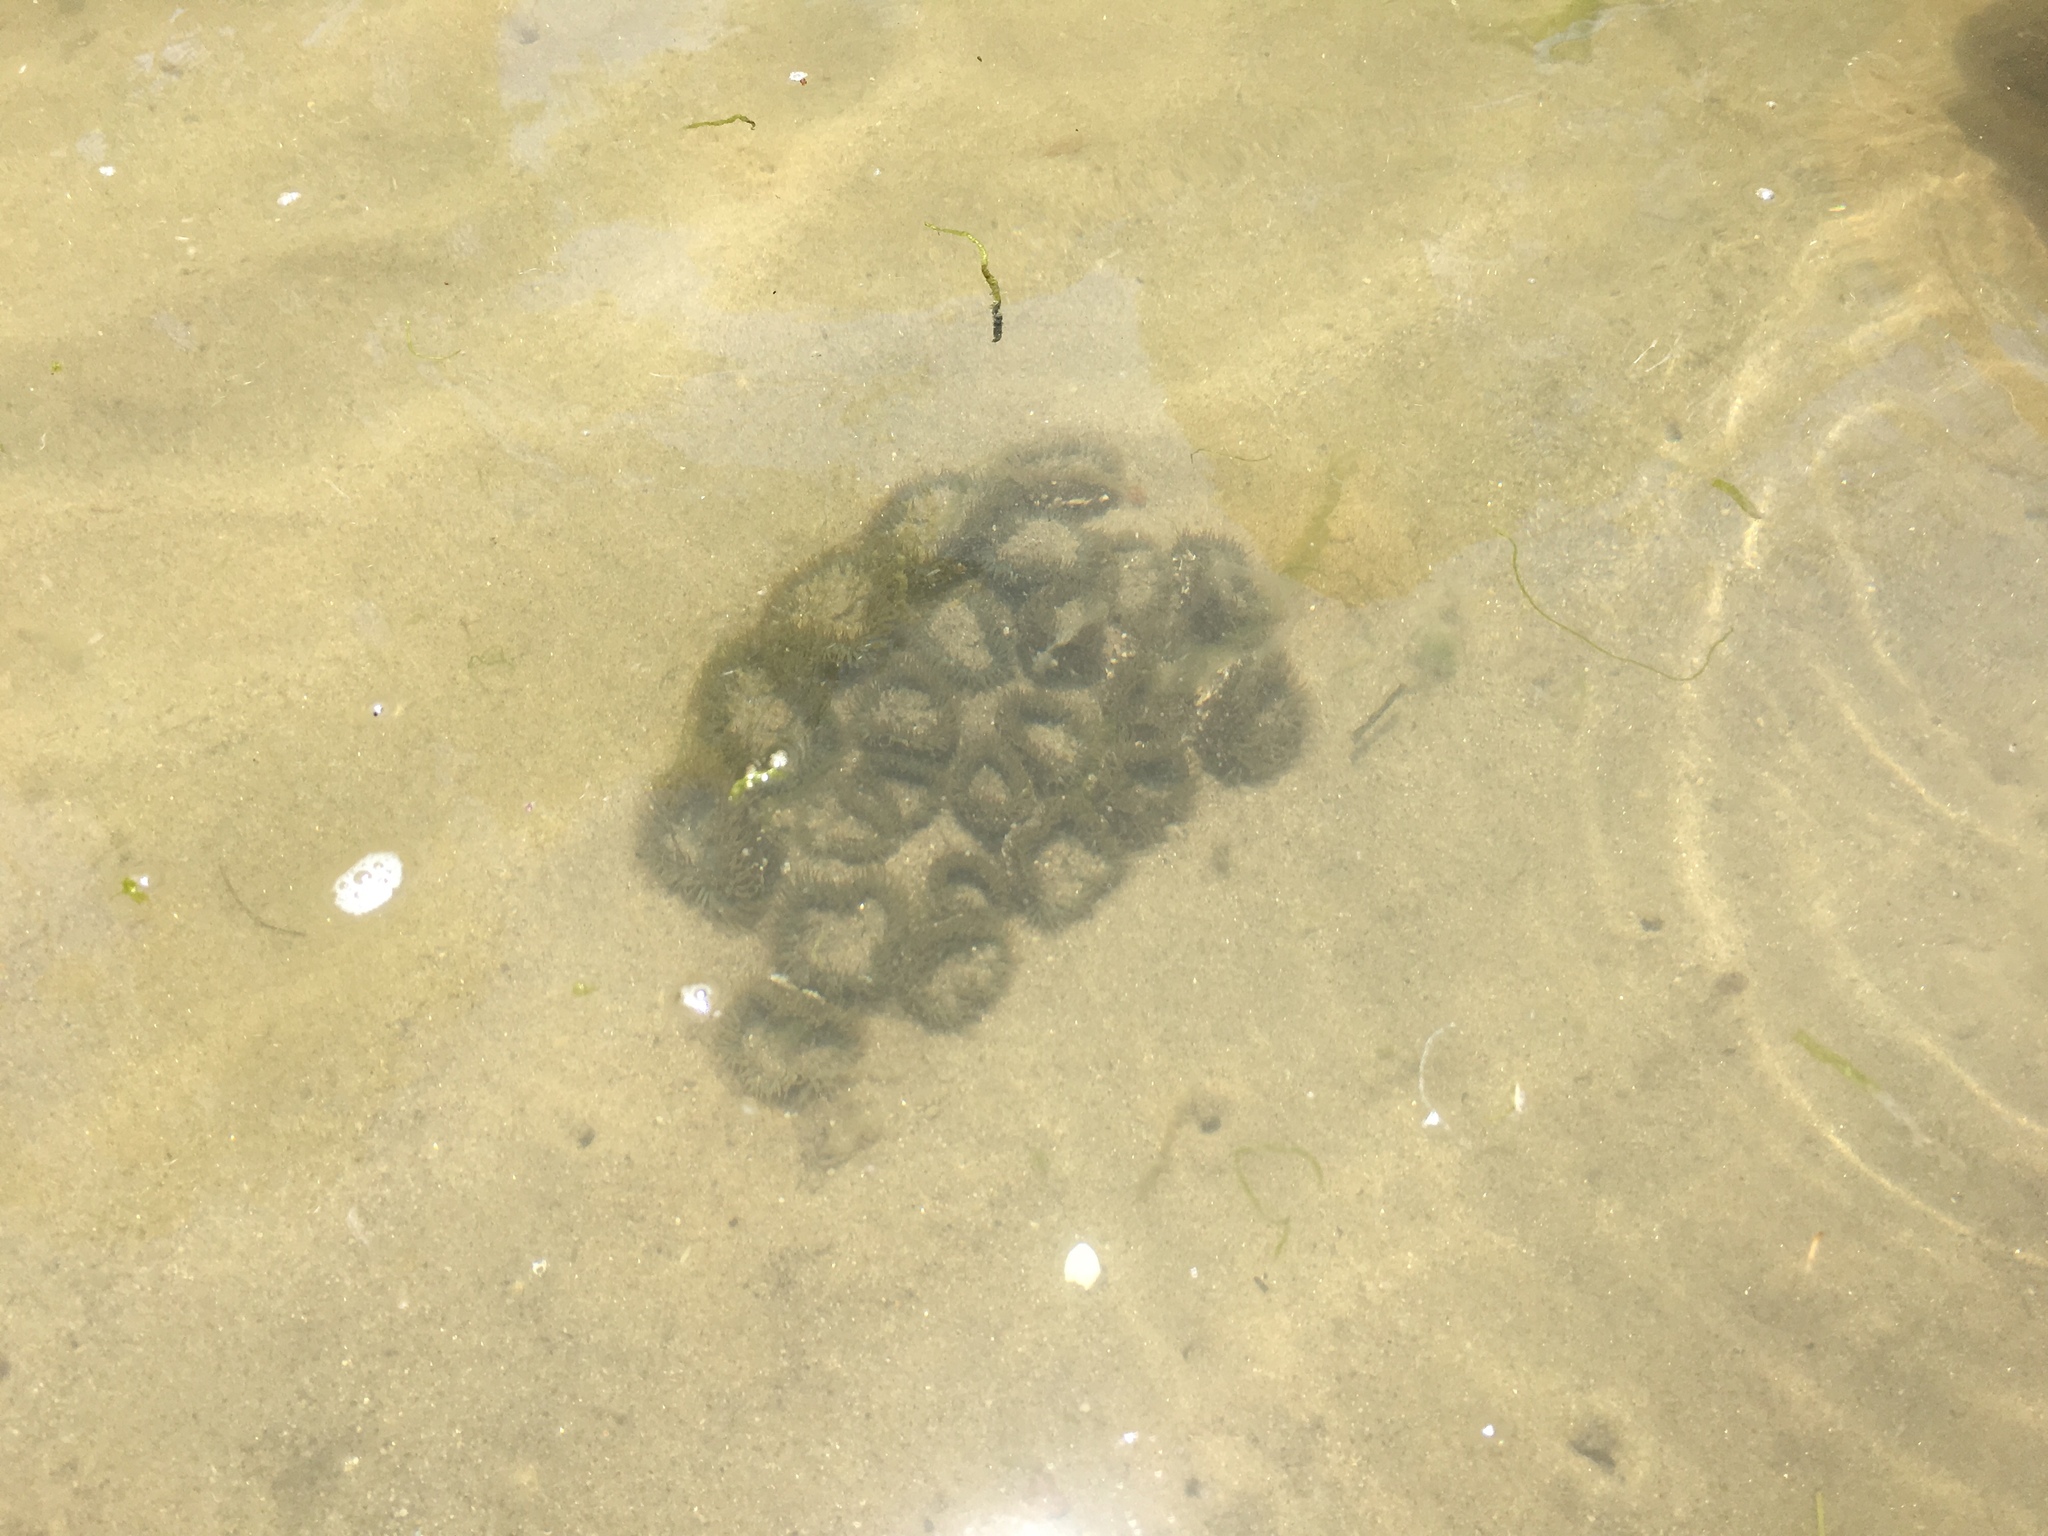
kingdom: Animalia
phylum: Cnidaria
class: Anthozoa
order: Actiniaria
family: Actiniidae
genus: Anthopleura
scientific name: Anthopleura elegantissima
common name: Clonal anemone
